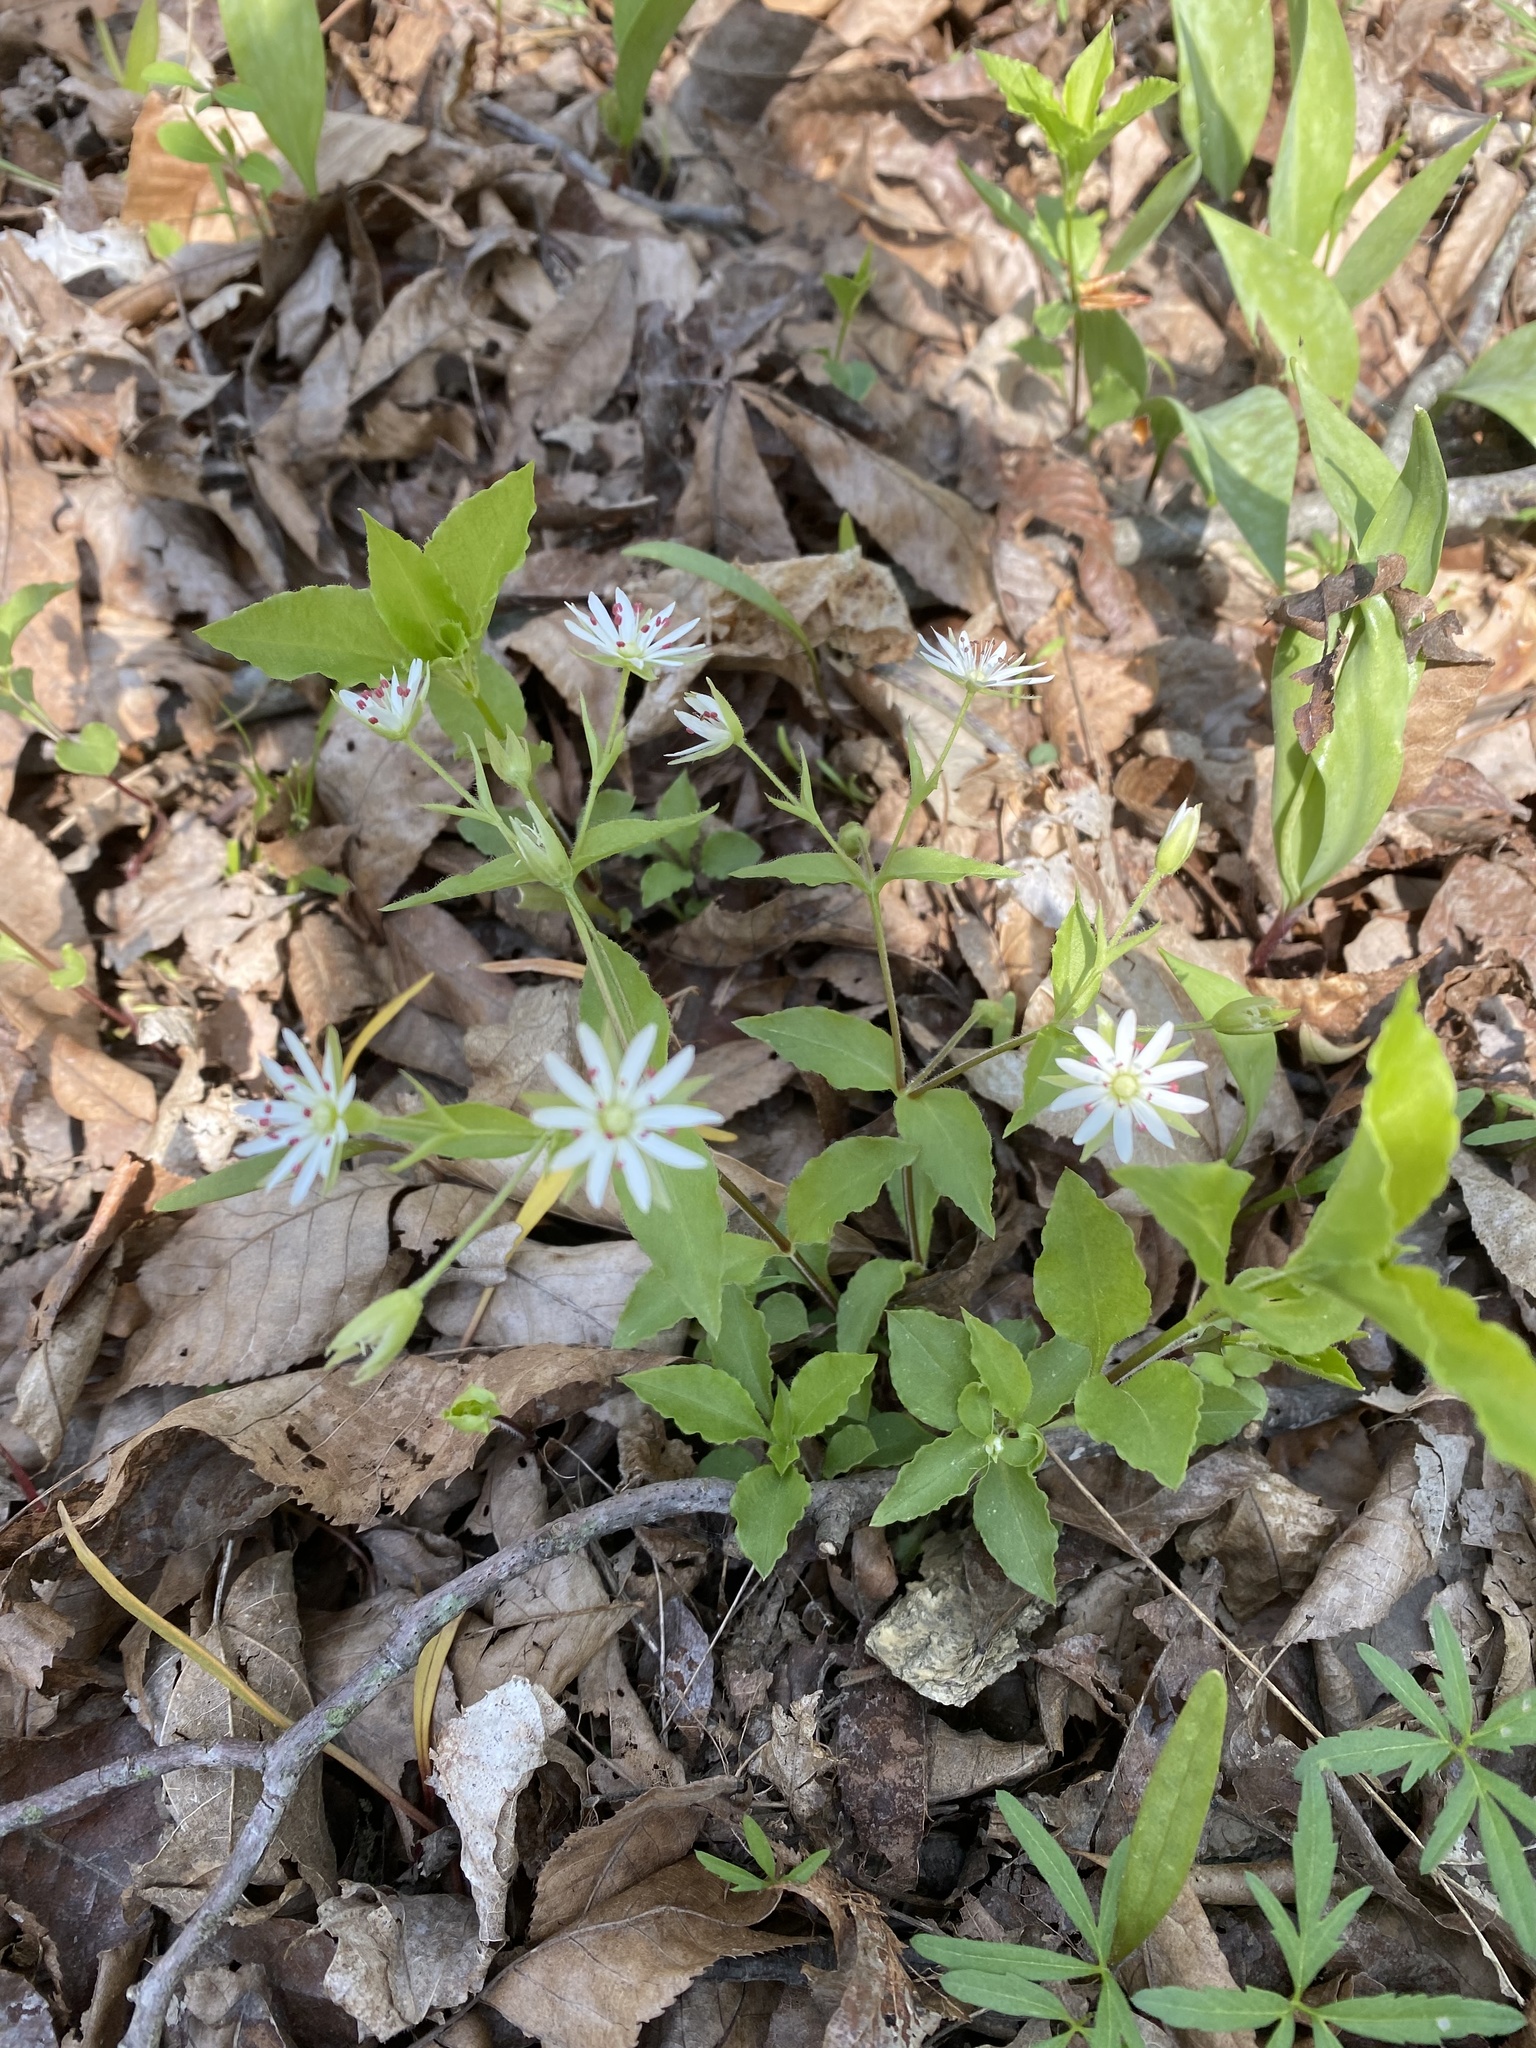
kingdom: Plantae
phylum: Tracheophyta
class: Magnoliopsida
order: Caryophyllales
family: Caryophyllaceae
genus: Stellaria
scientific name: Stellaria corei
